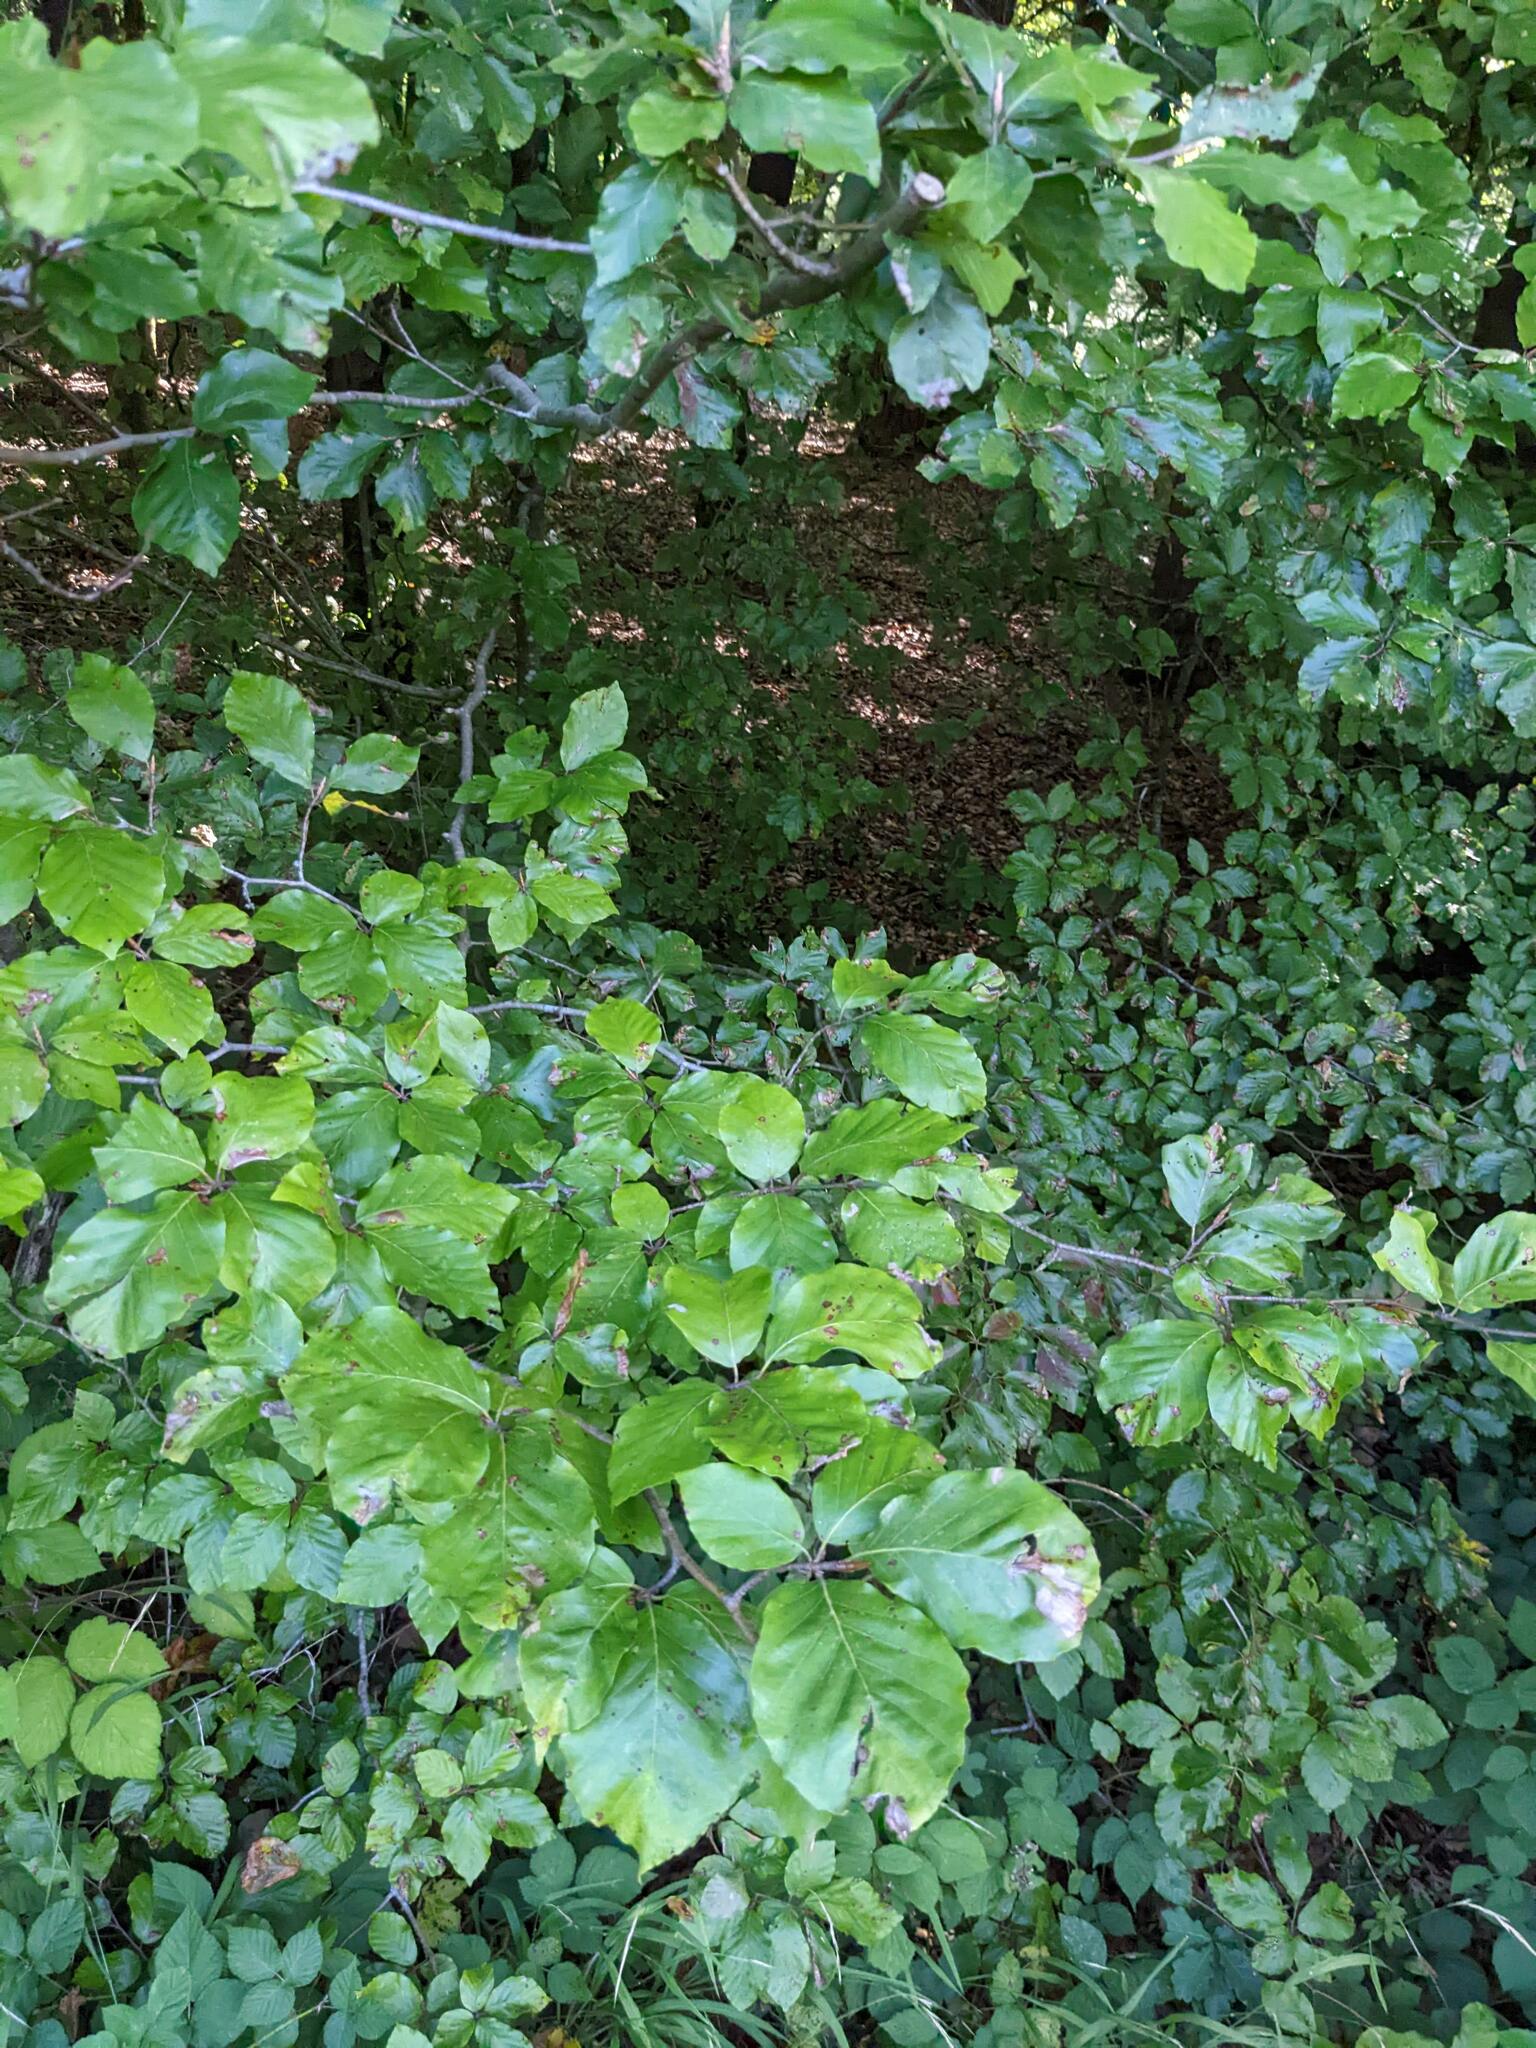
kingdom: Plantae
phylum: Tracheophyta
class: Magnoliopsida
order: Fagales
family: Fagaceae
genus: Fagus
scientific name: Fagus sylvatica
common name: Beech
